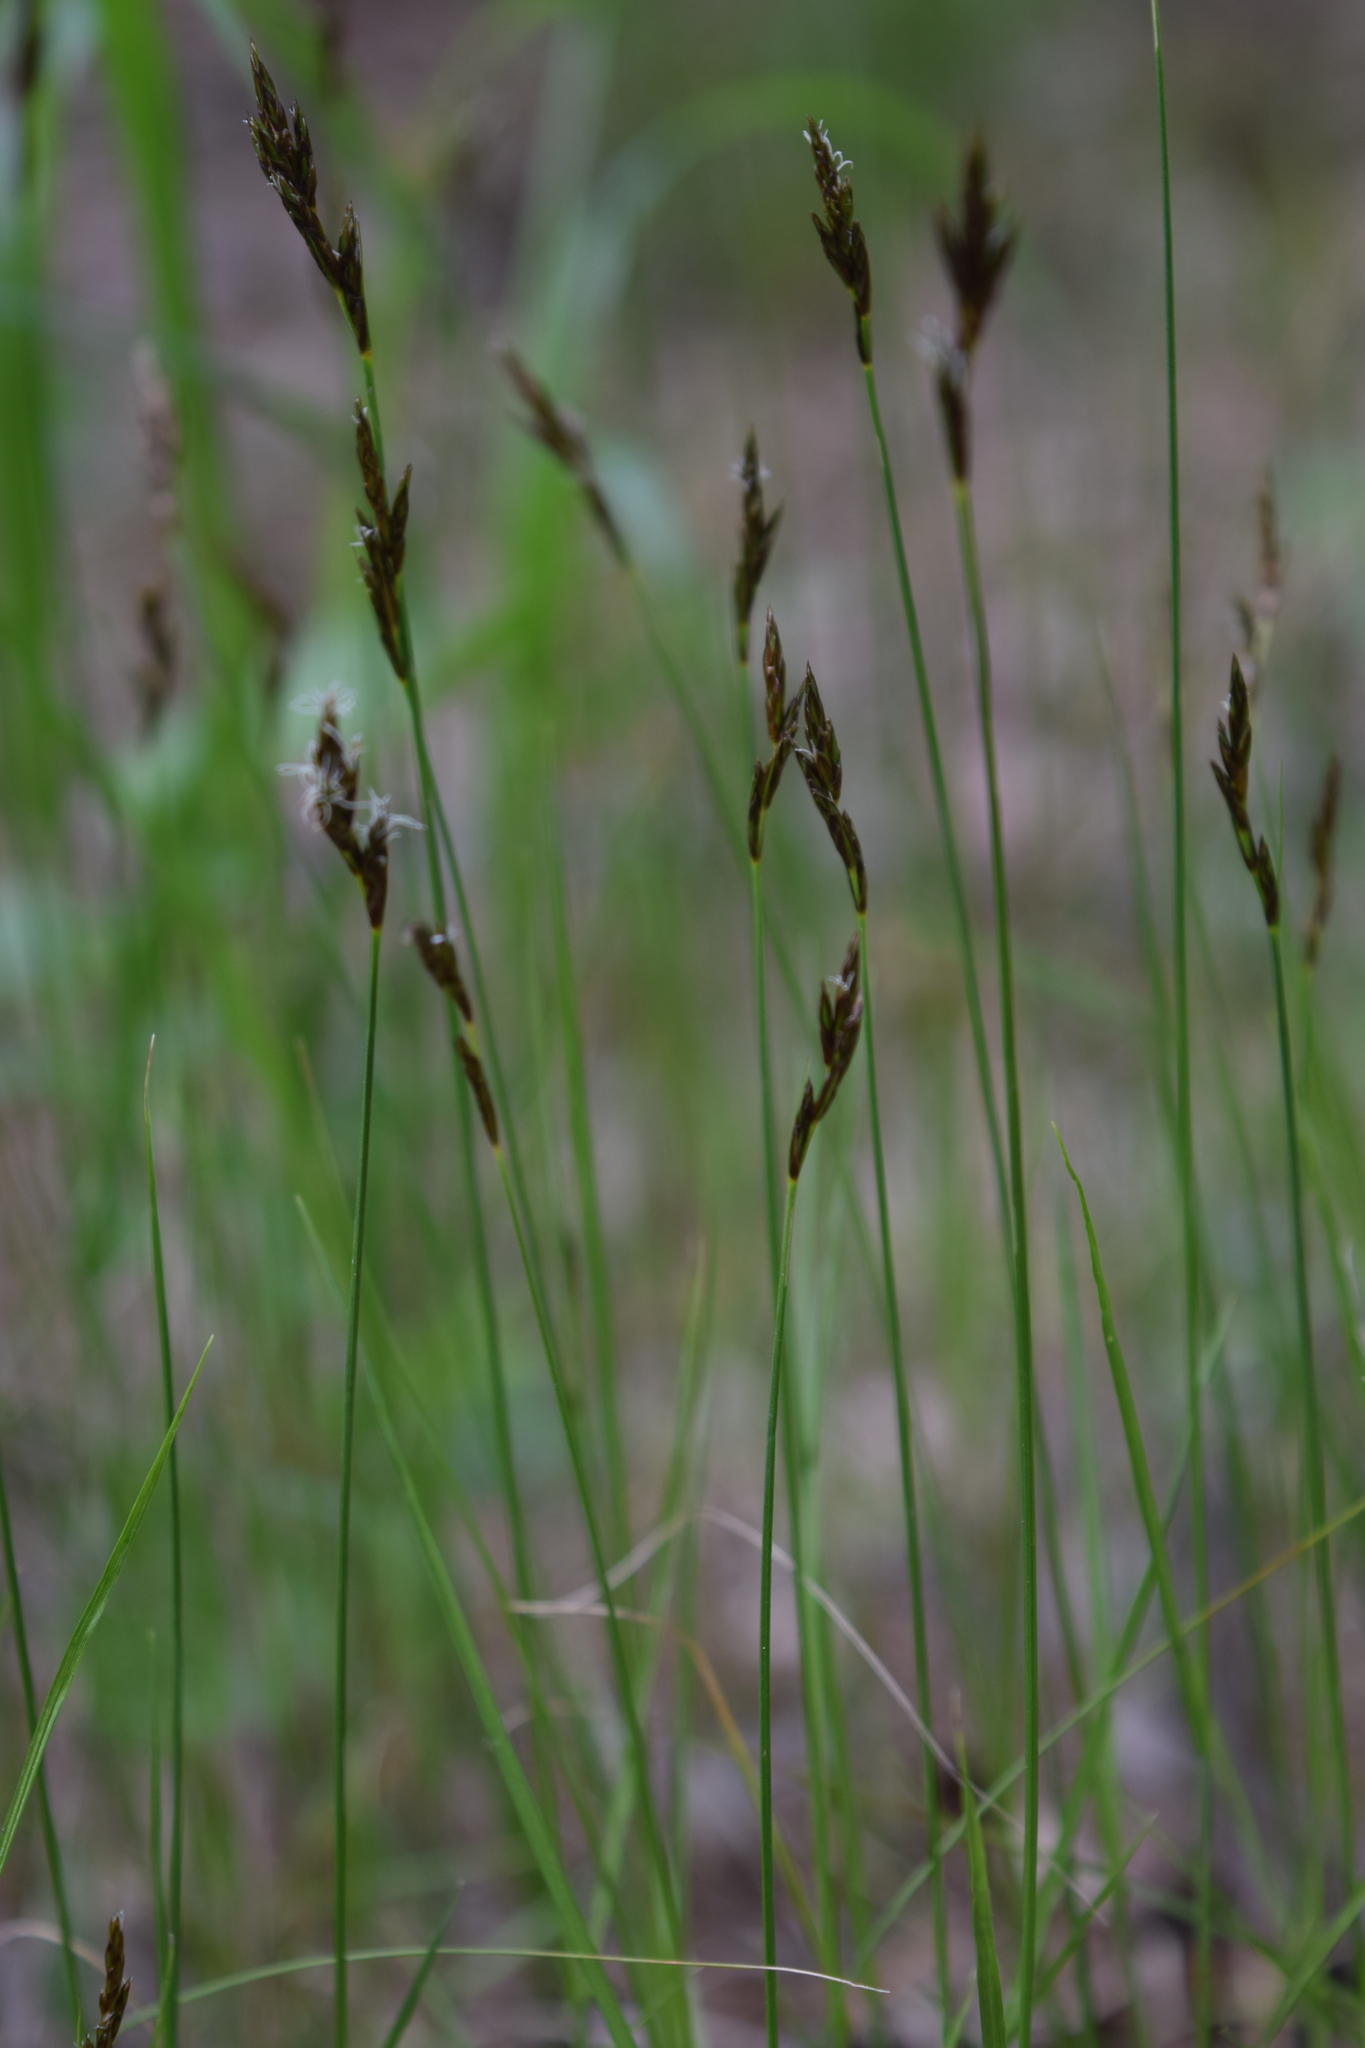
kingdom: Plantae
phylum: Tracheophyta
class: Liliopsida
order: Poales
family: Cyperaceae
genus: Carex
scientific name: Carex praecox
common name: Early sedge
